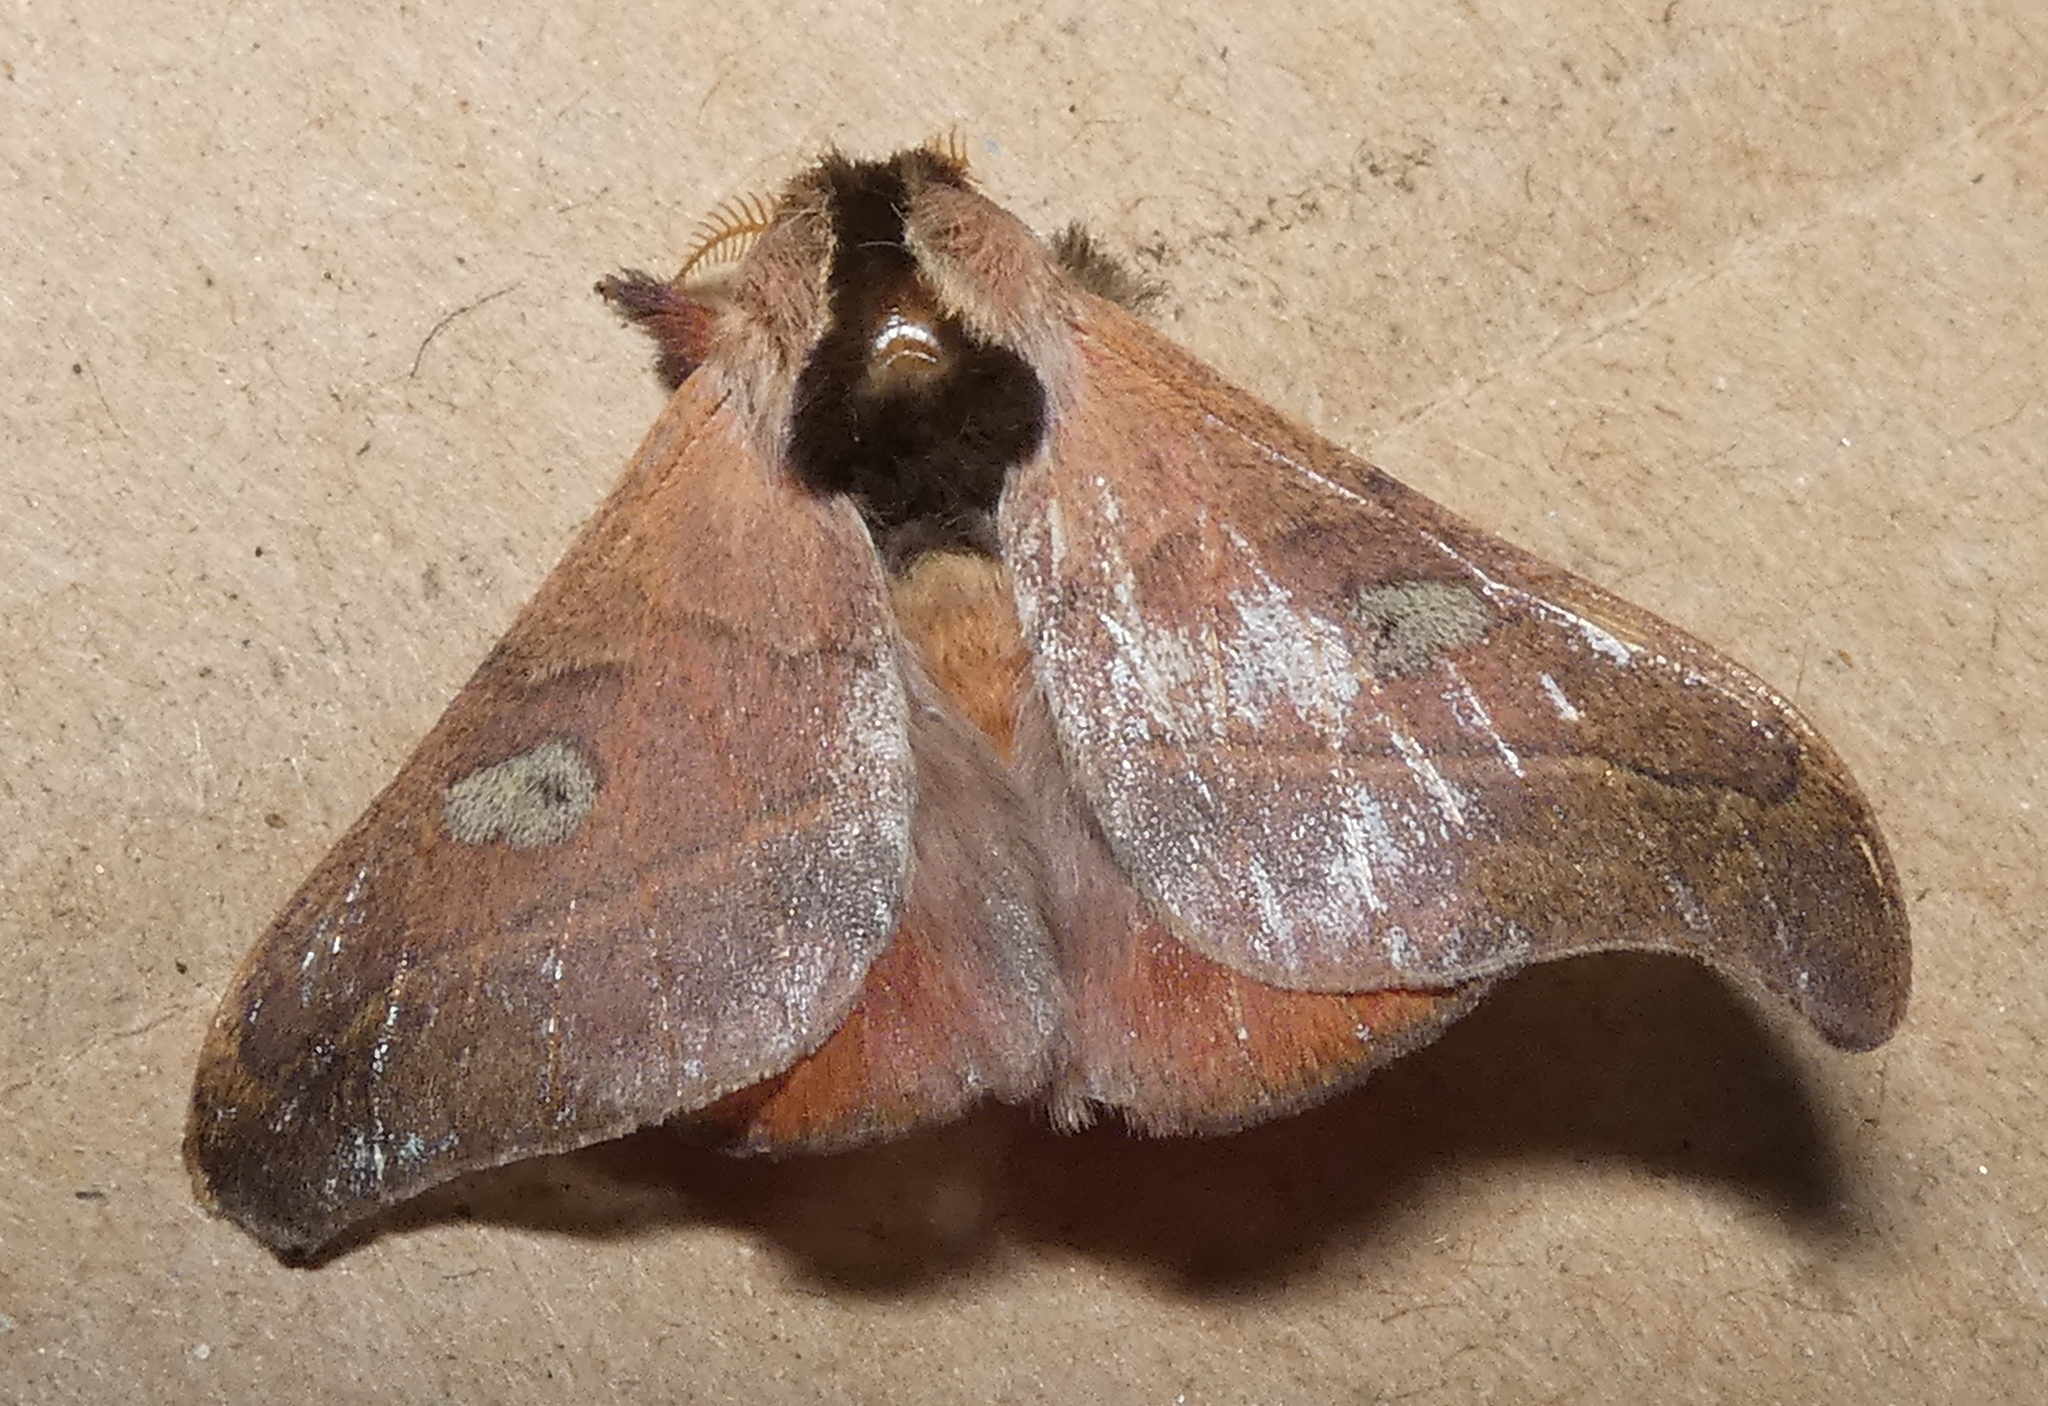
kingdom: Animalia
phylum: Arthropoda
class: Insecta
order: Lepidoptera
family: Saturniidae
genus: Hylesia
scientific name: Hylesia nanus
